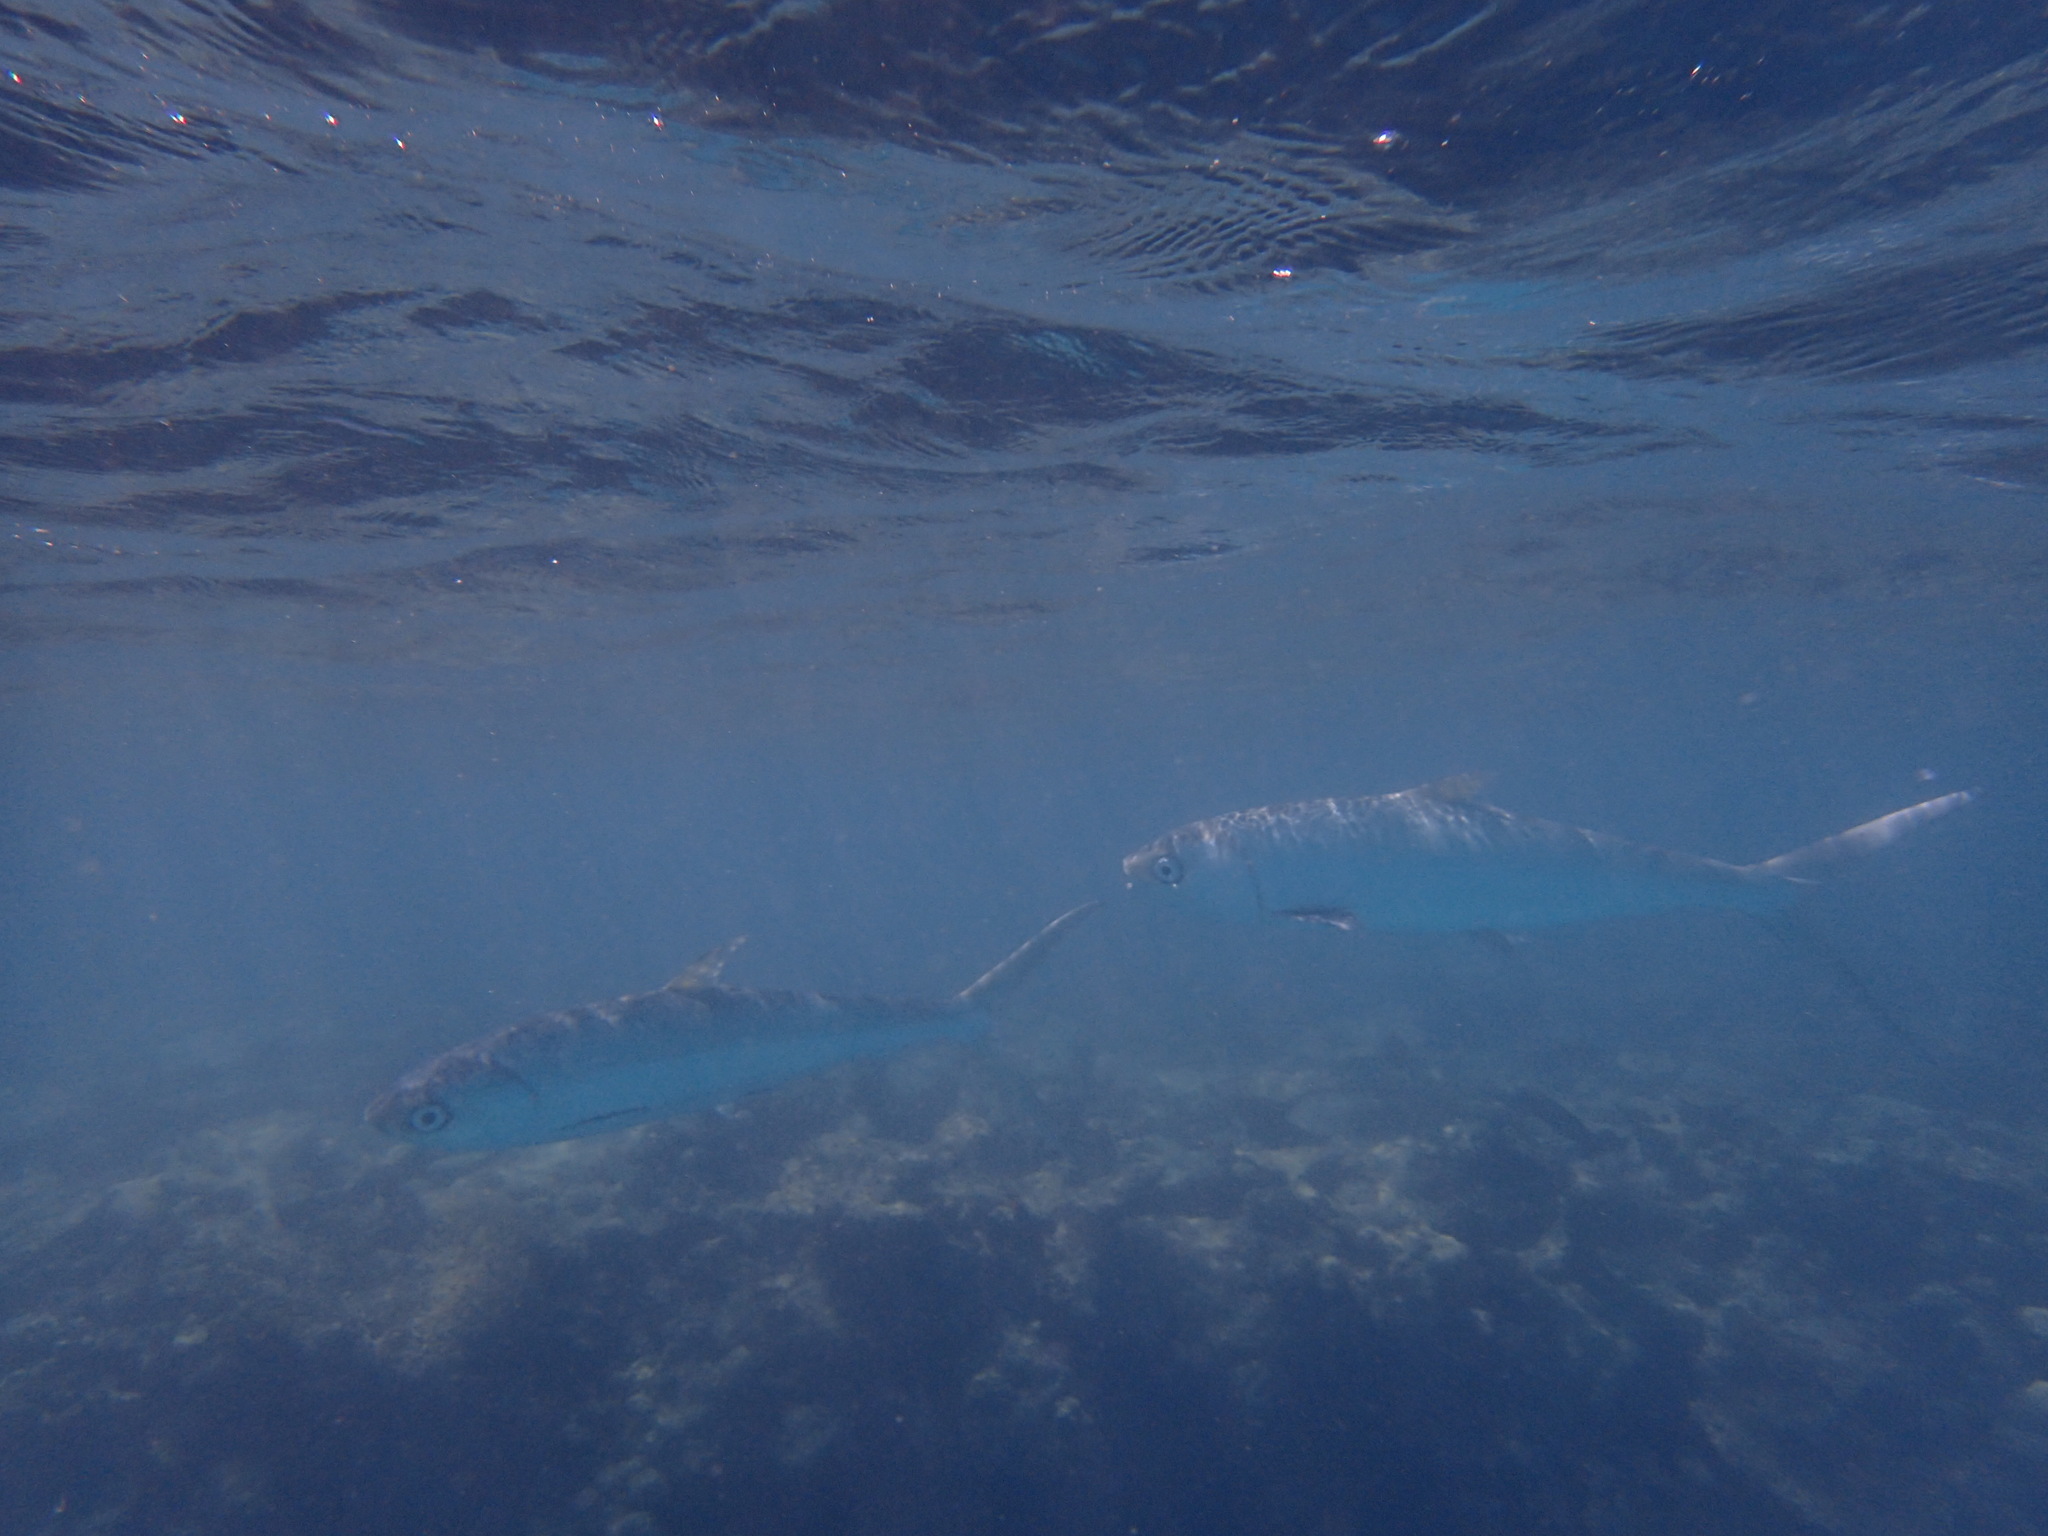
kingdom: Animalia
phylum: Chordata
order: Gonorynchiformes
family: Chanidae
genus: Chanos
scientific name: Chanos chanos
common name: Milkfish
